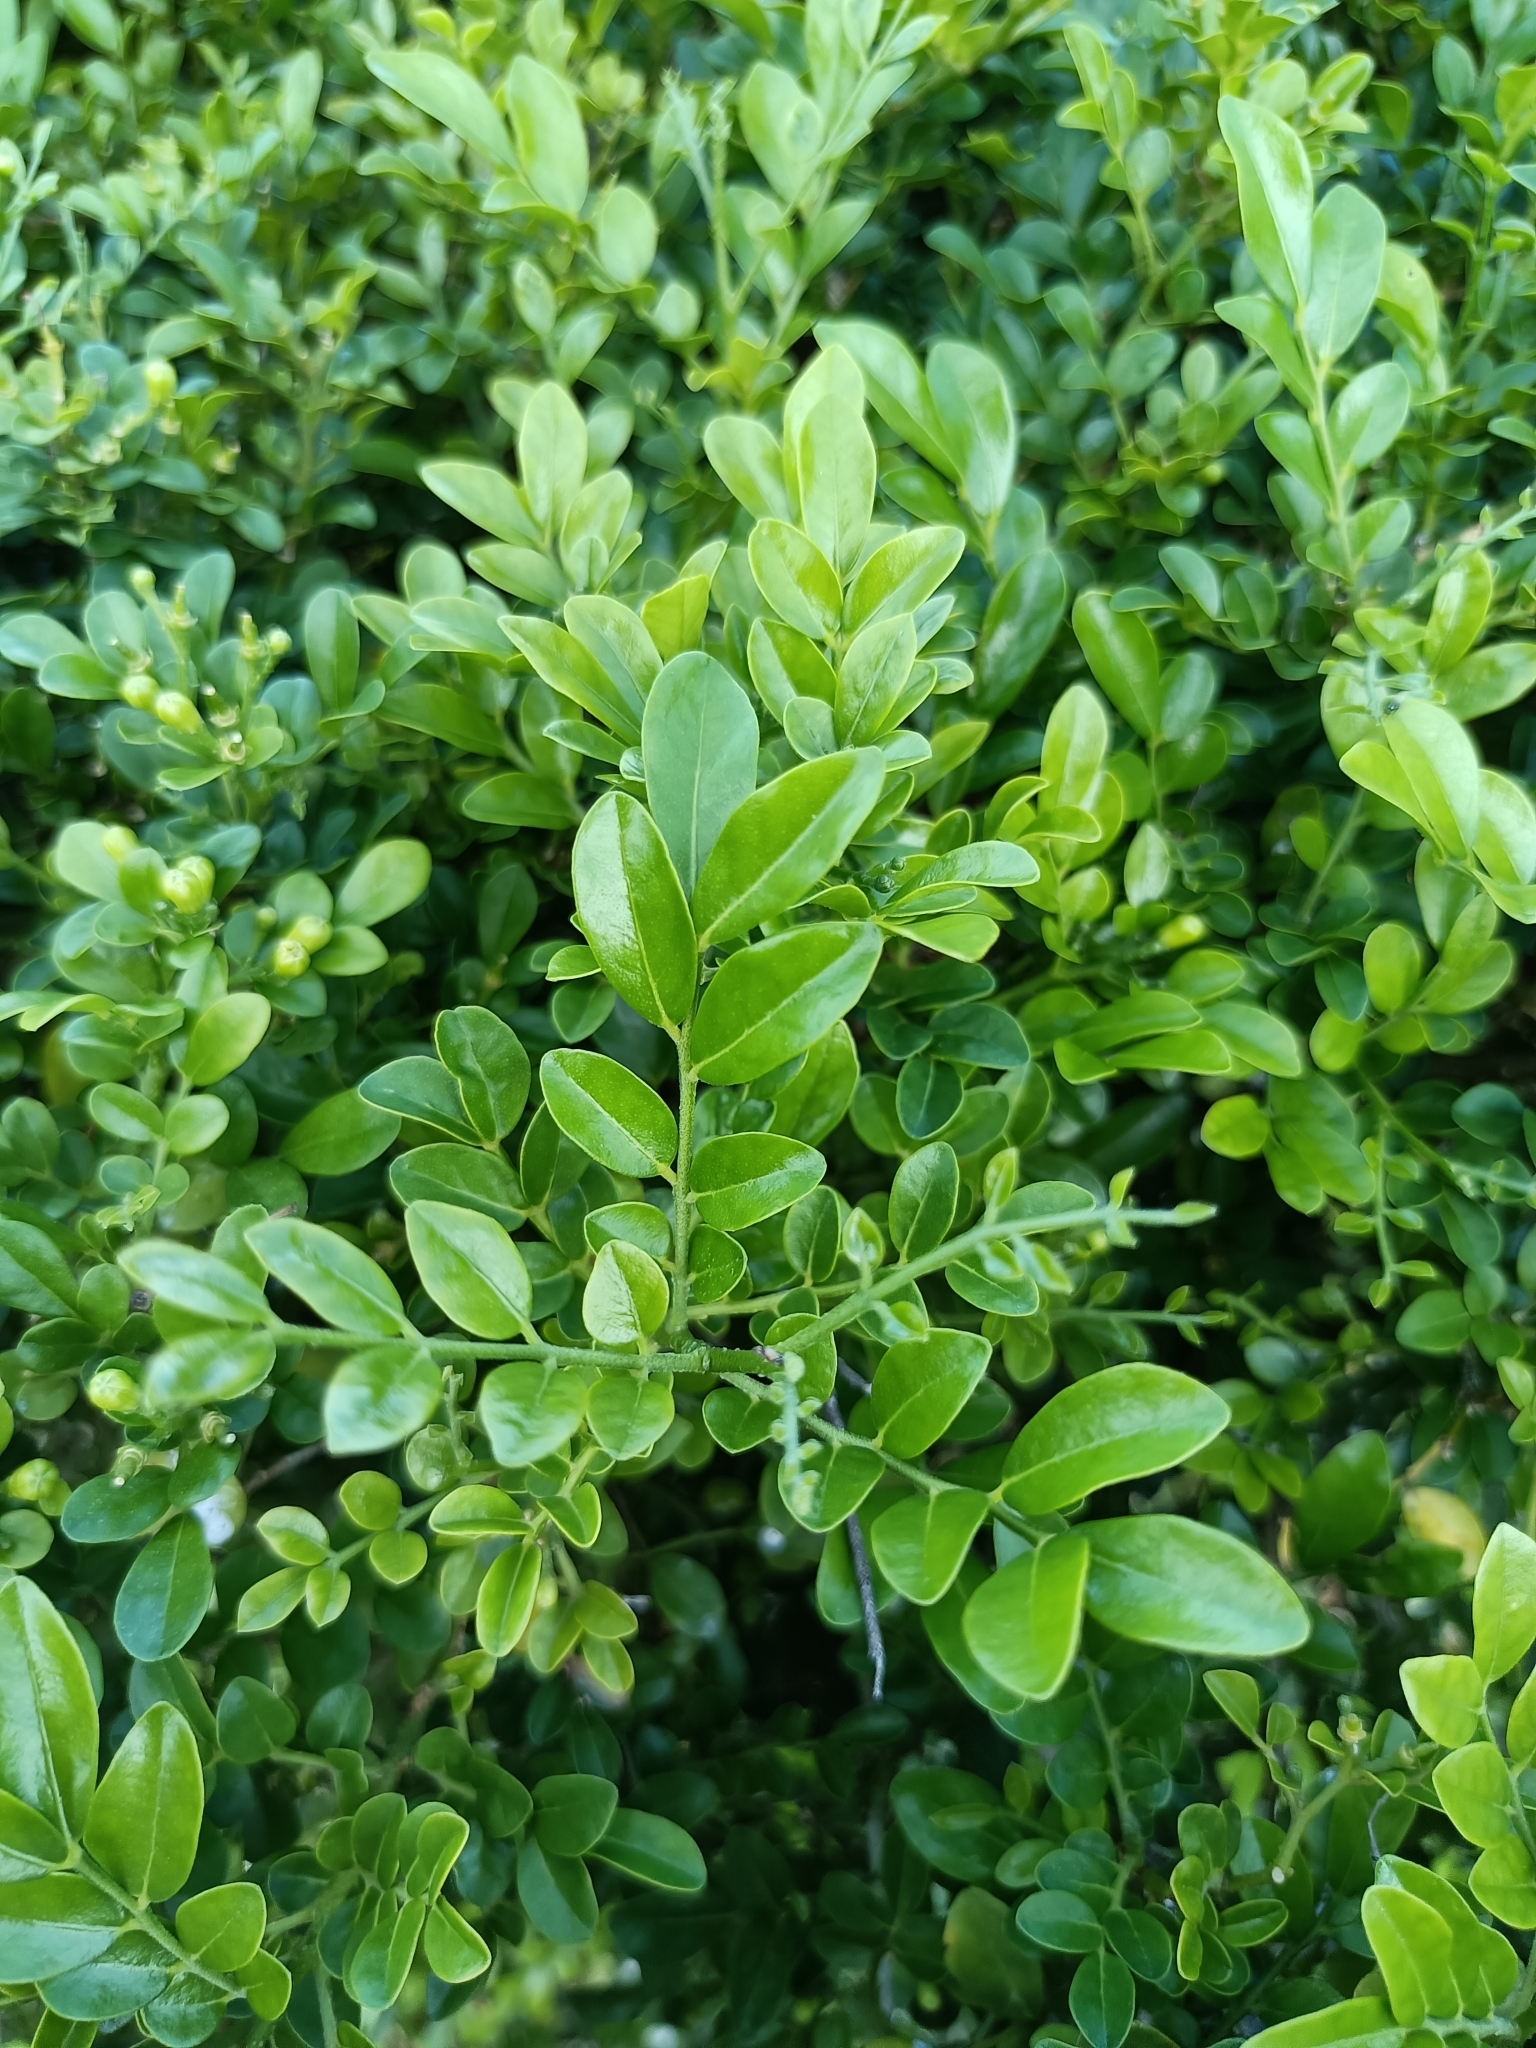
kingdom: Plantae
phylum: Tracheophyta
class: Magnoliopsida
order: Sapindales
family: Rutaceae
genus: Murraya
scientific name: Murraya paniculata
